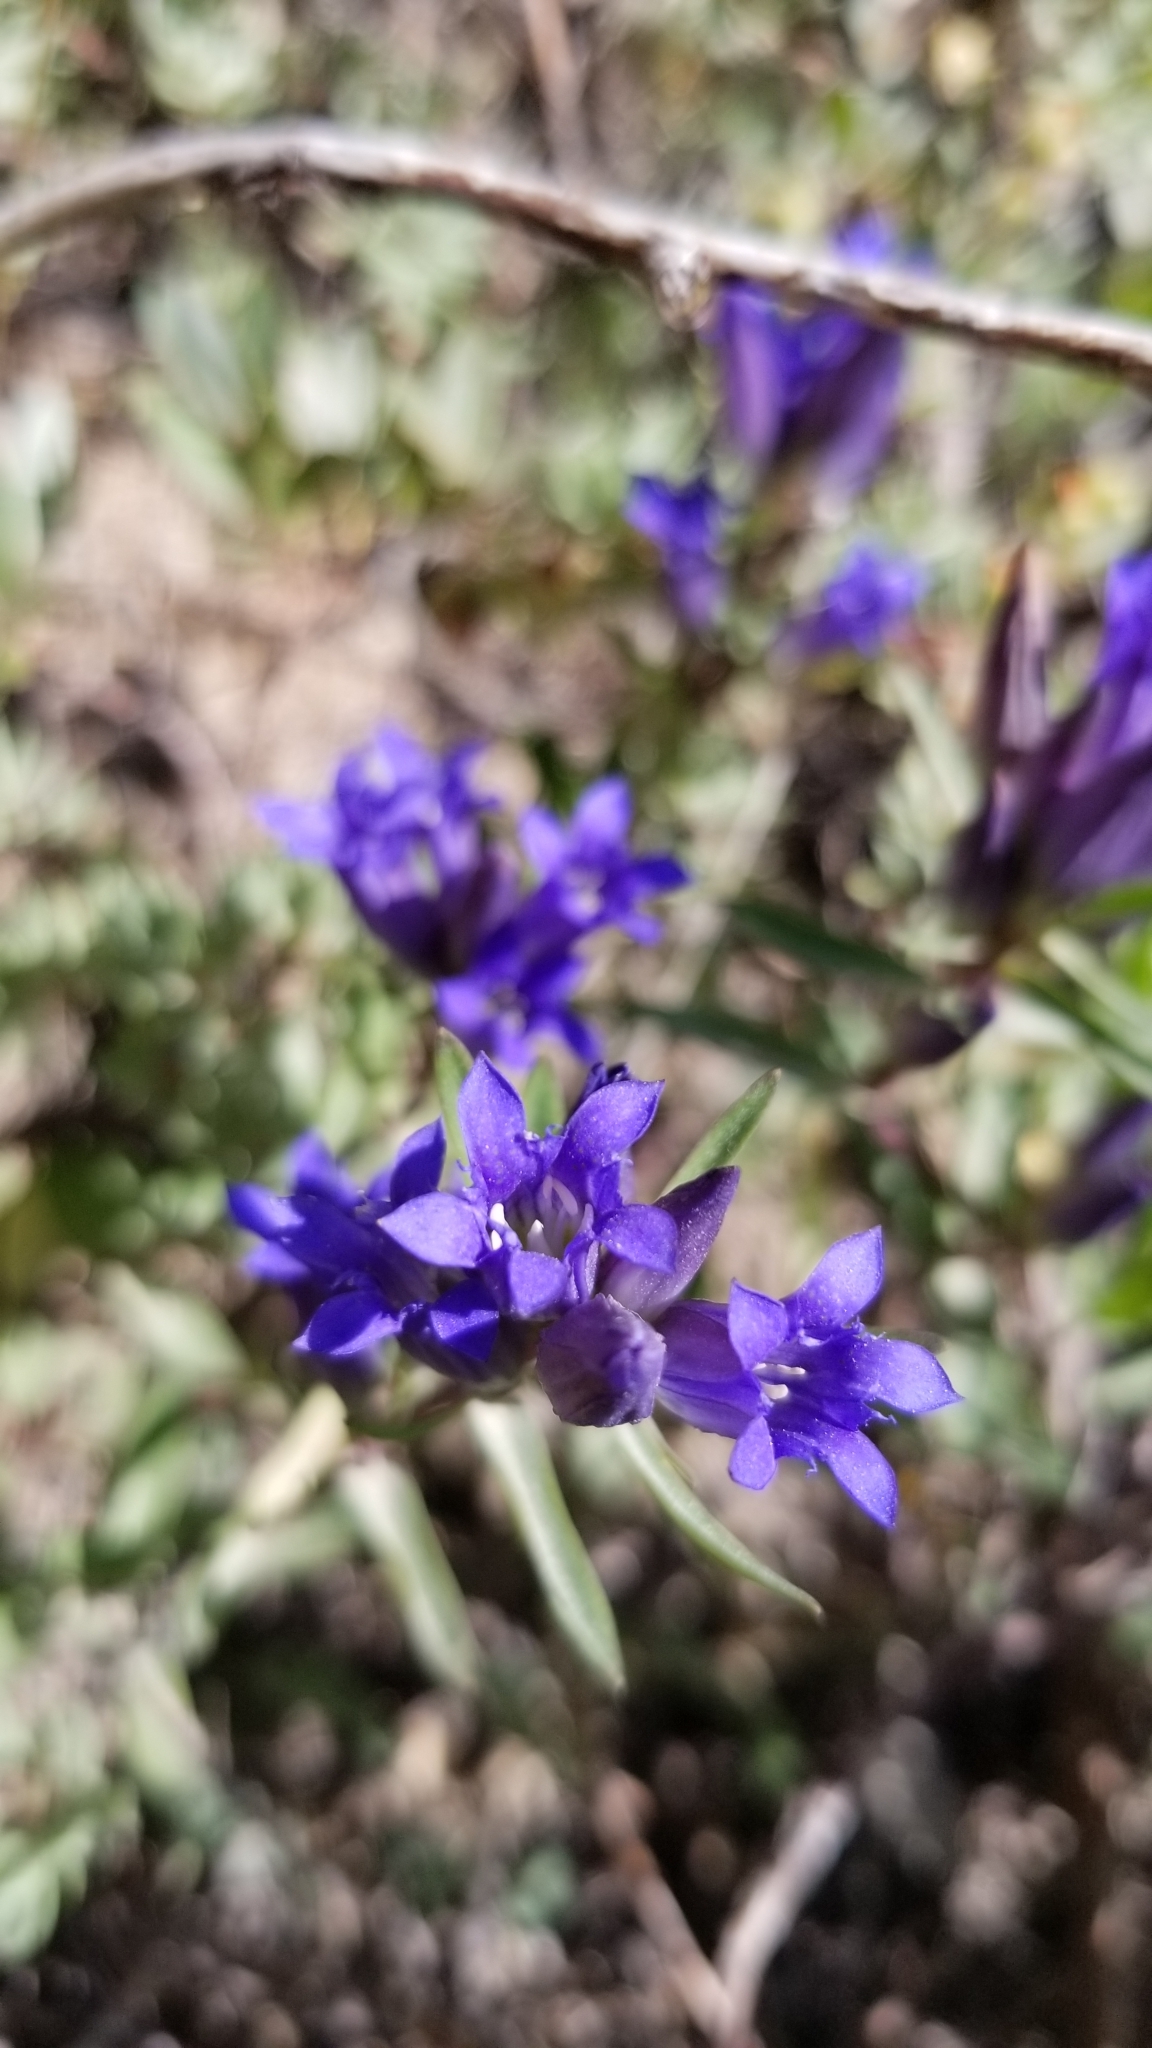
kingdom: Plantae
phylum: Tracheophyta
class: Magnoliopsida
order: Gentianales
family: Gentianaceae
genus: Gentiana
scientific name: Gentiana affinis
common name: Rocky mountain gentian
